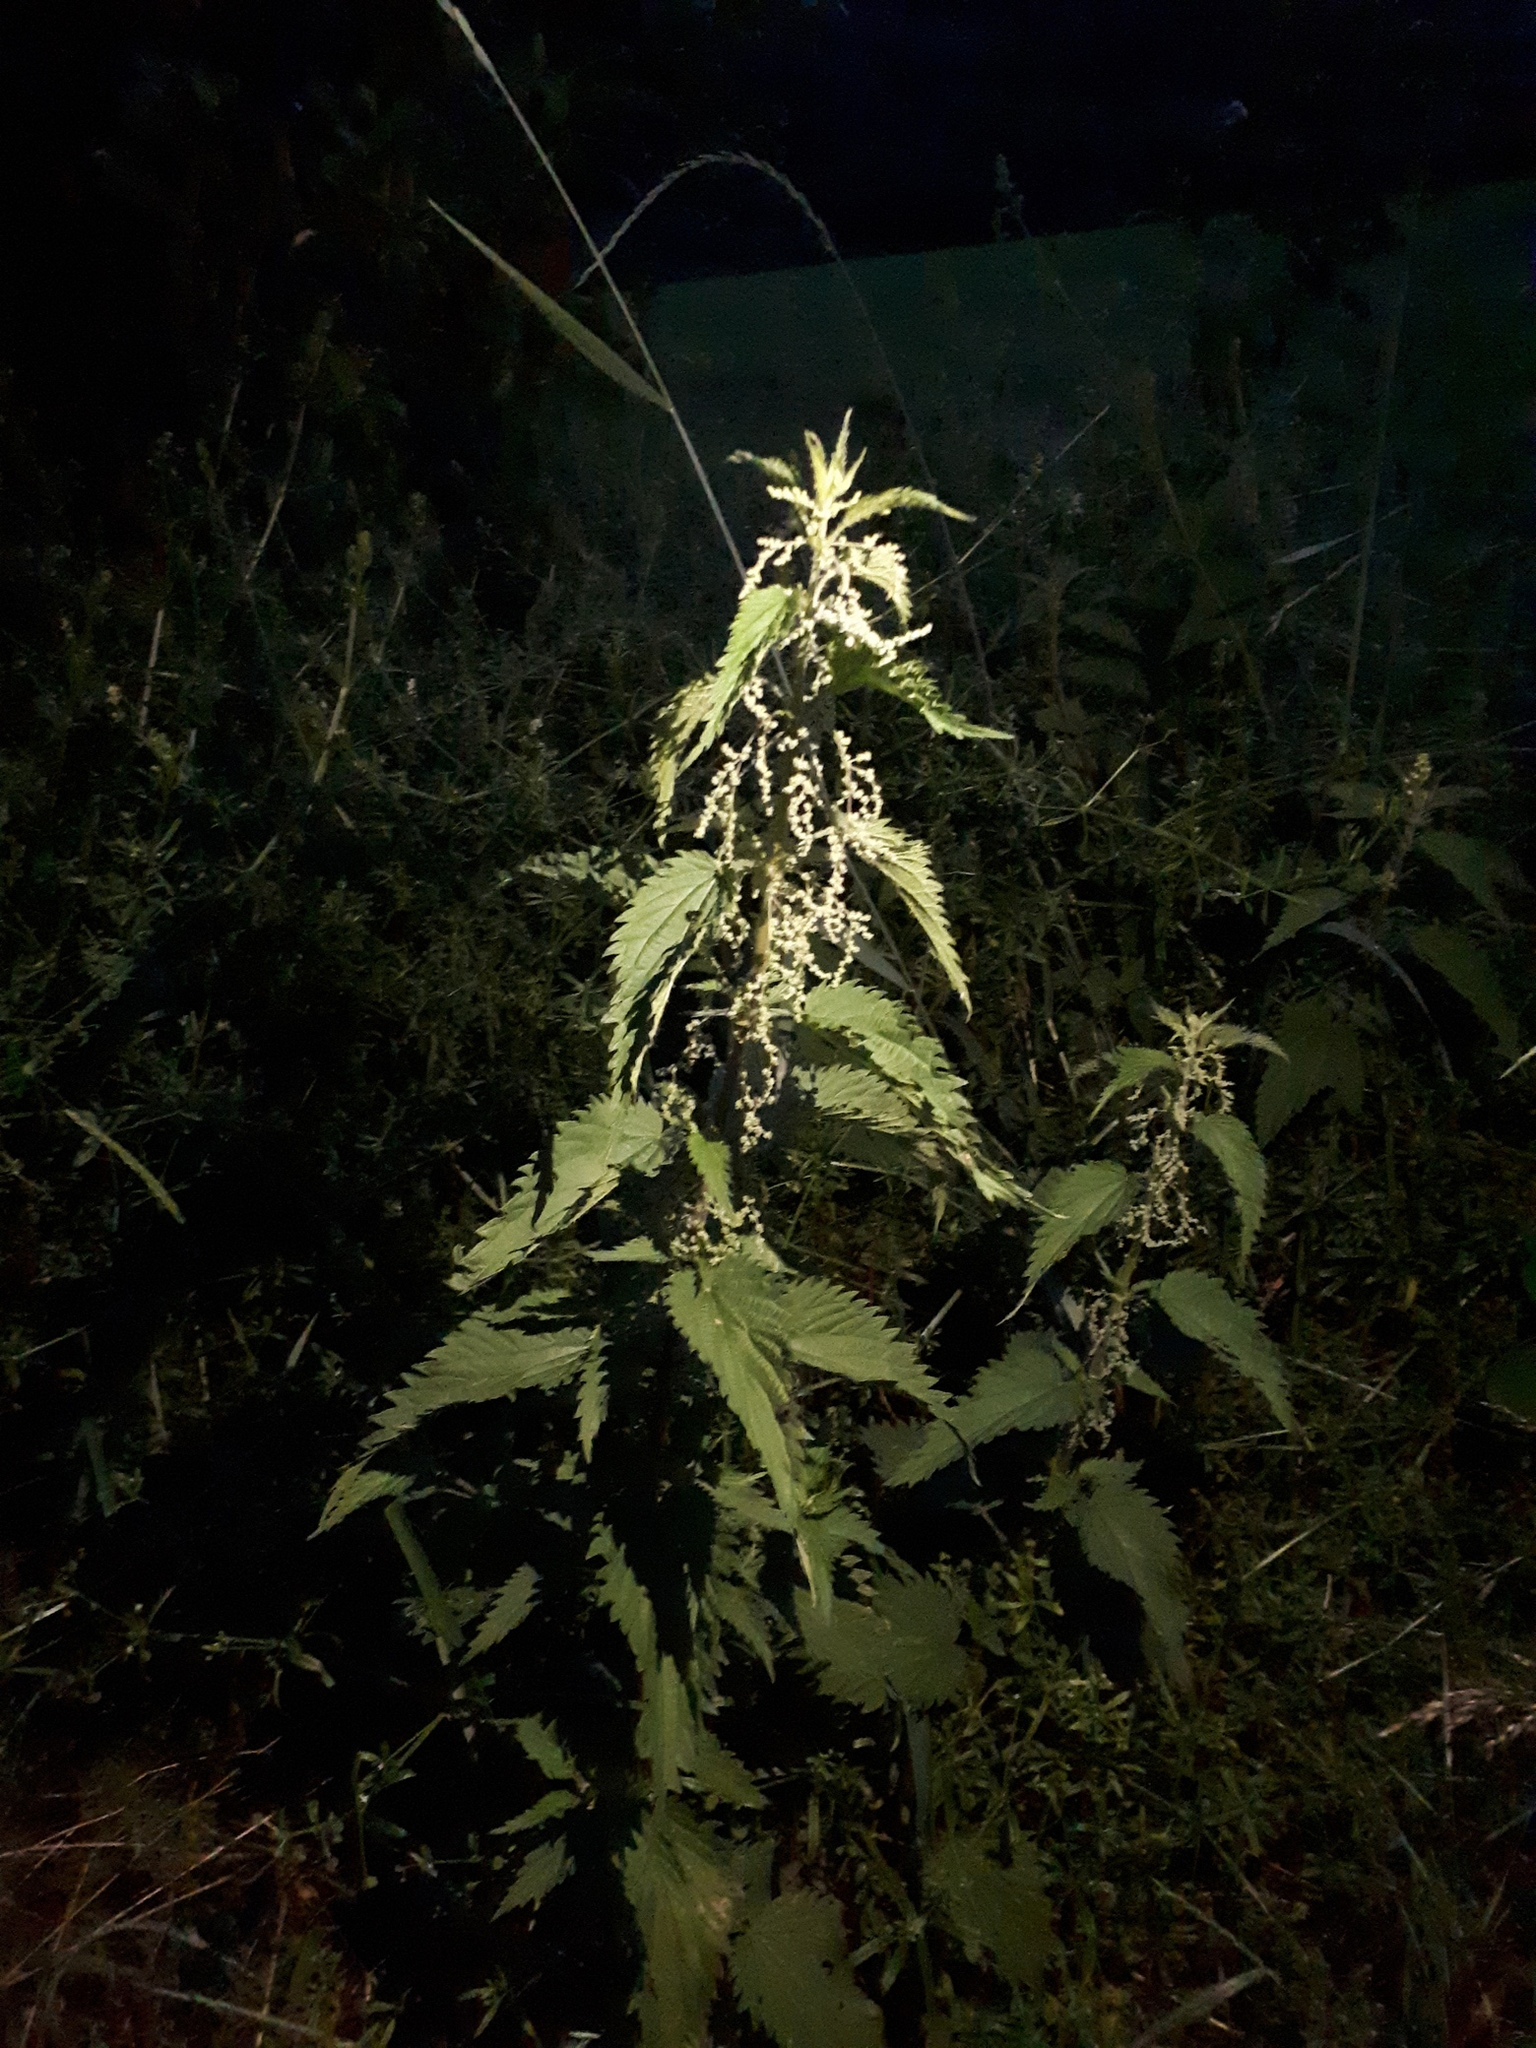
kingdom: Plantae
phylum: Tracheophyta
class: Magnoliopsida
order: Rosales
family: Urticaceae
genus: Urtica
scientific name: Urtica dioica
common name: Common nettle
